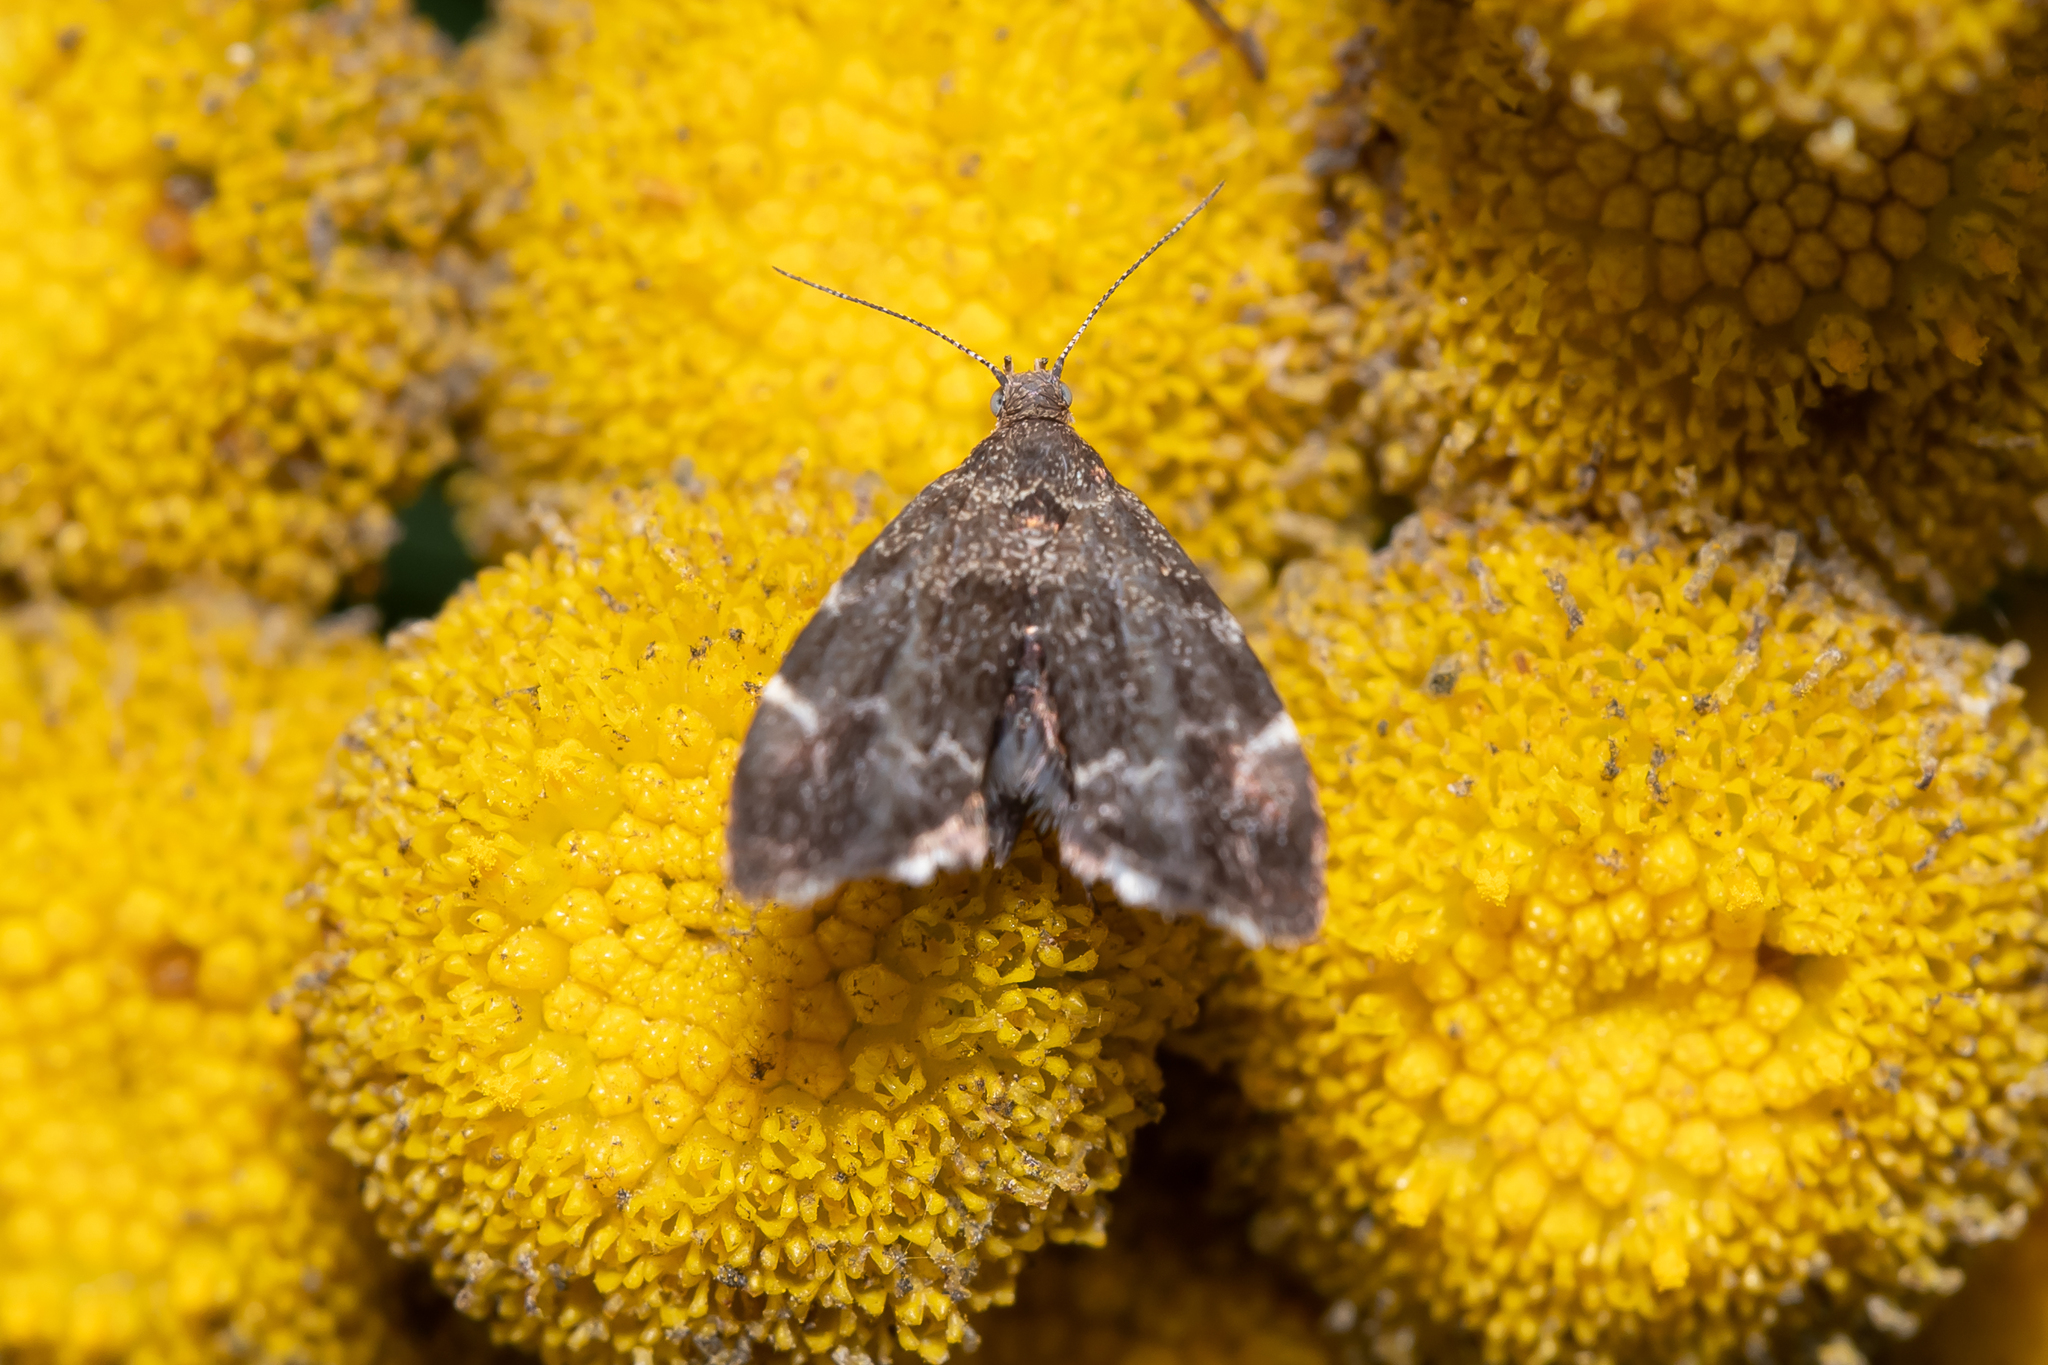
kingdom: Animalia
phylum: Arthropoda
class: Insecta
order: Lepidoptera
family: Choreutidae
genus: Anthophila
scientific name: Anthophila fabriciana
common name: Nettle-tap
